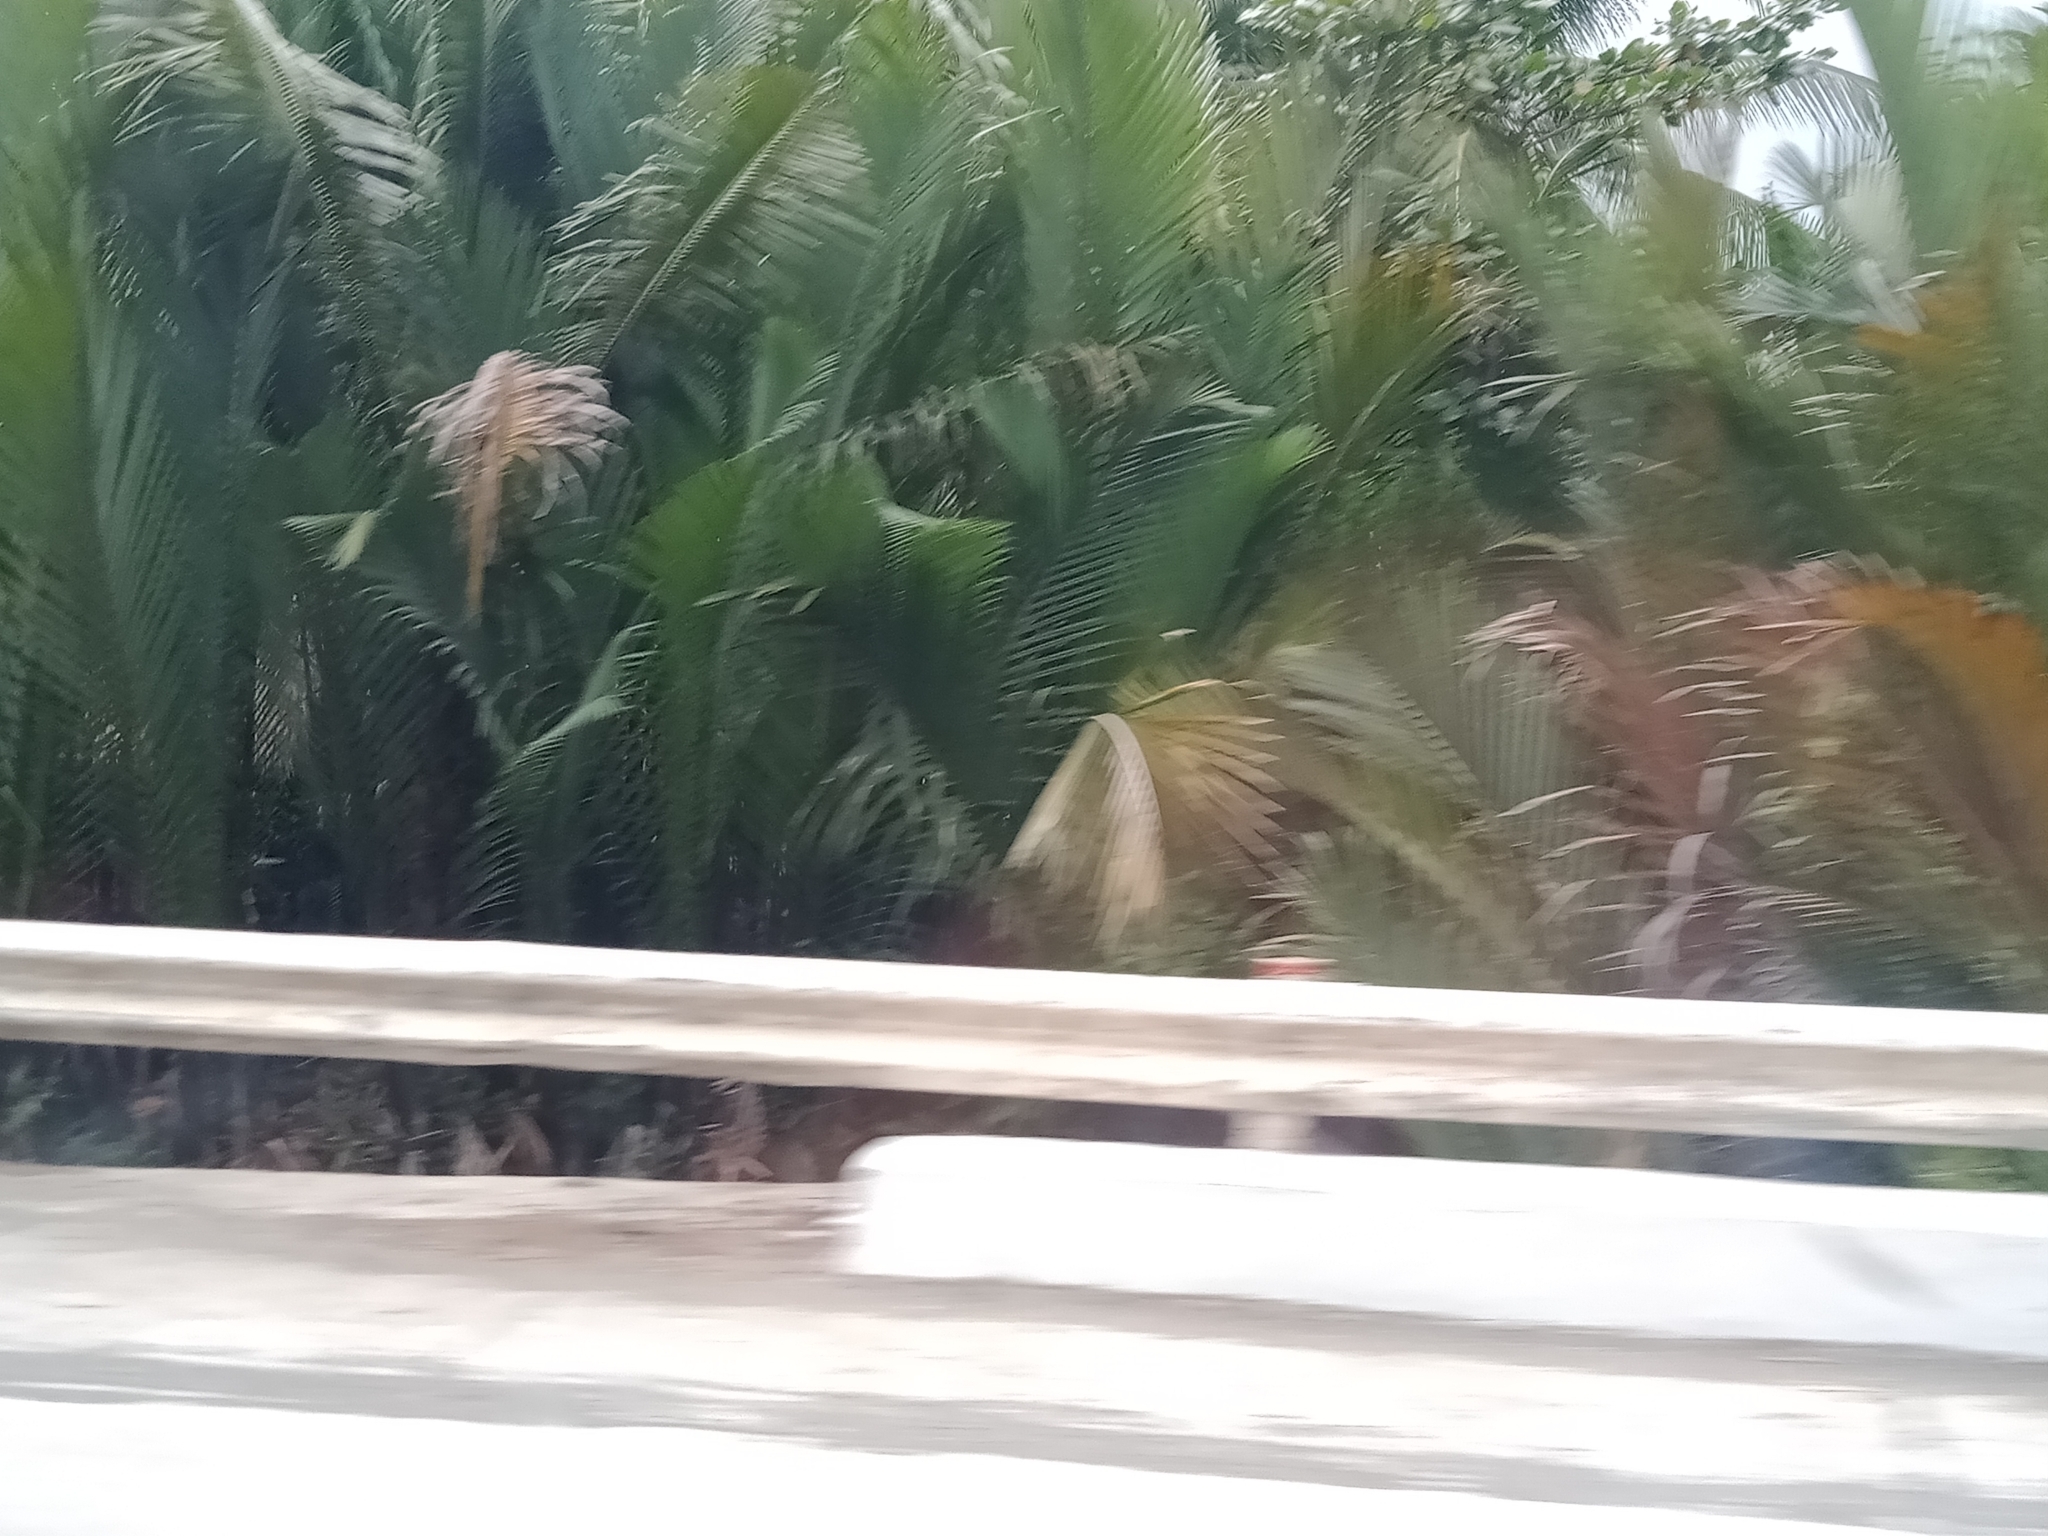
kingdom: Plantae
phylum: Tracheophyta
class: Liliopsida
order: Arecales
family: Arecaceae
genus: Nypa
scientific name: Nypa fruticans
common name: Mangrove palm
